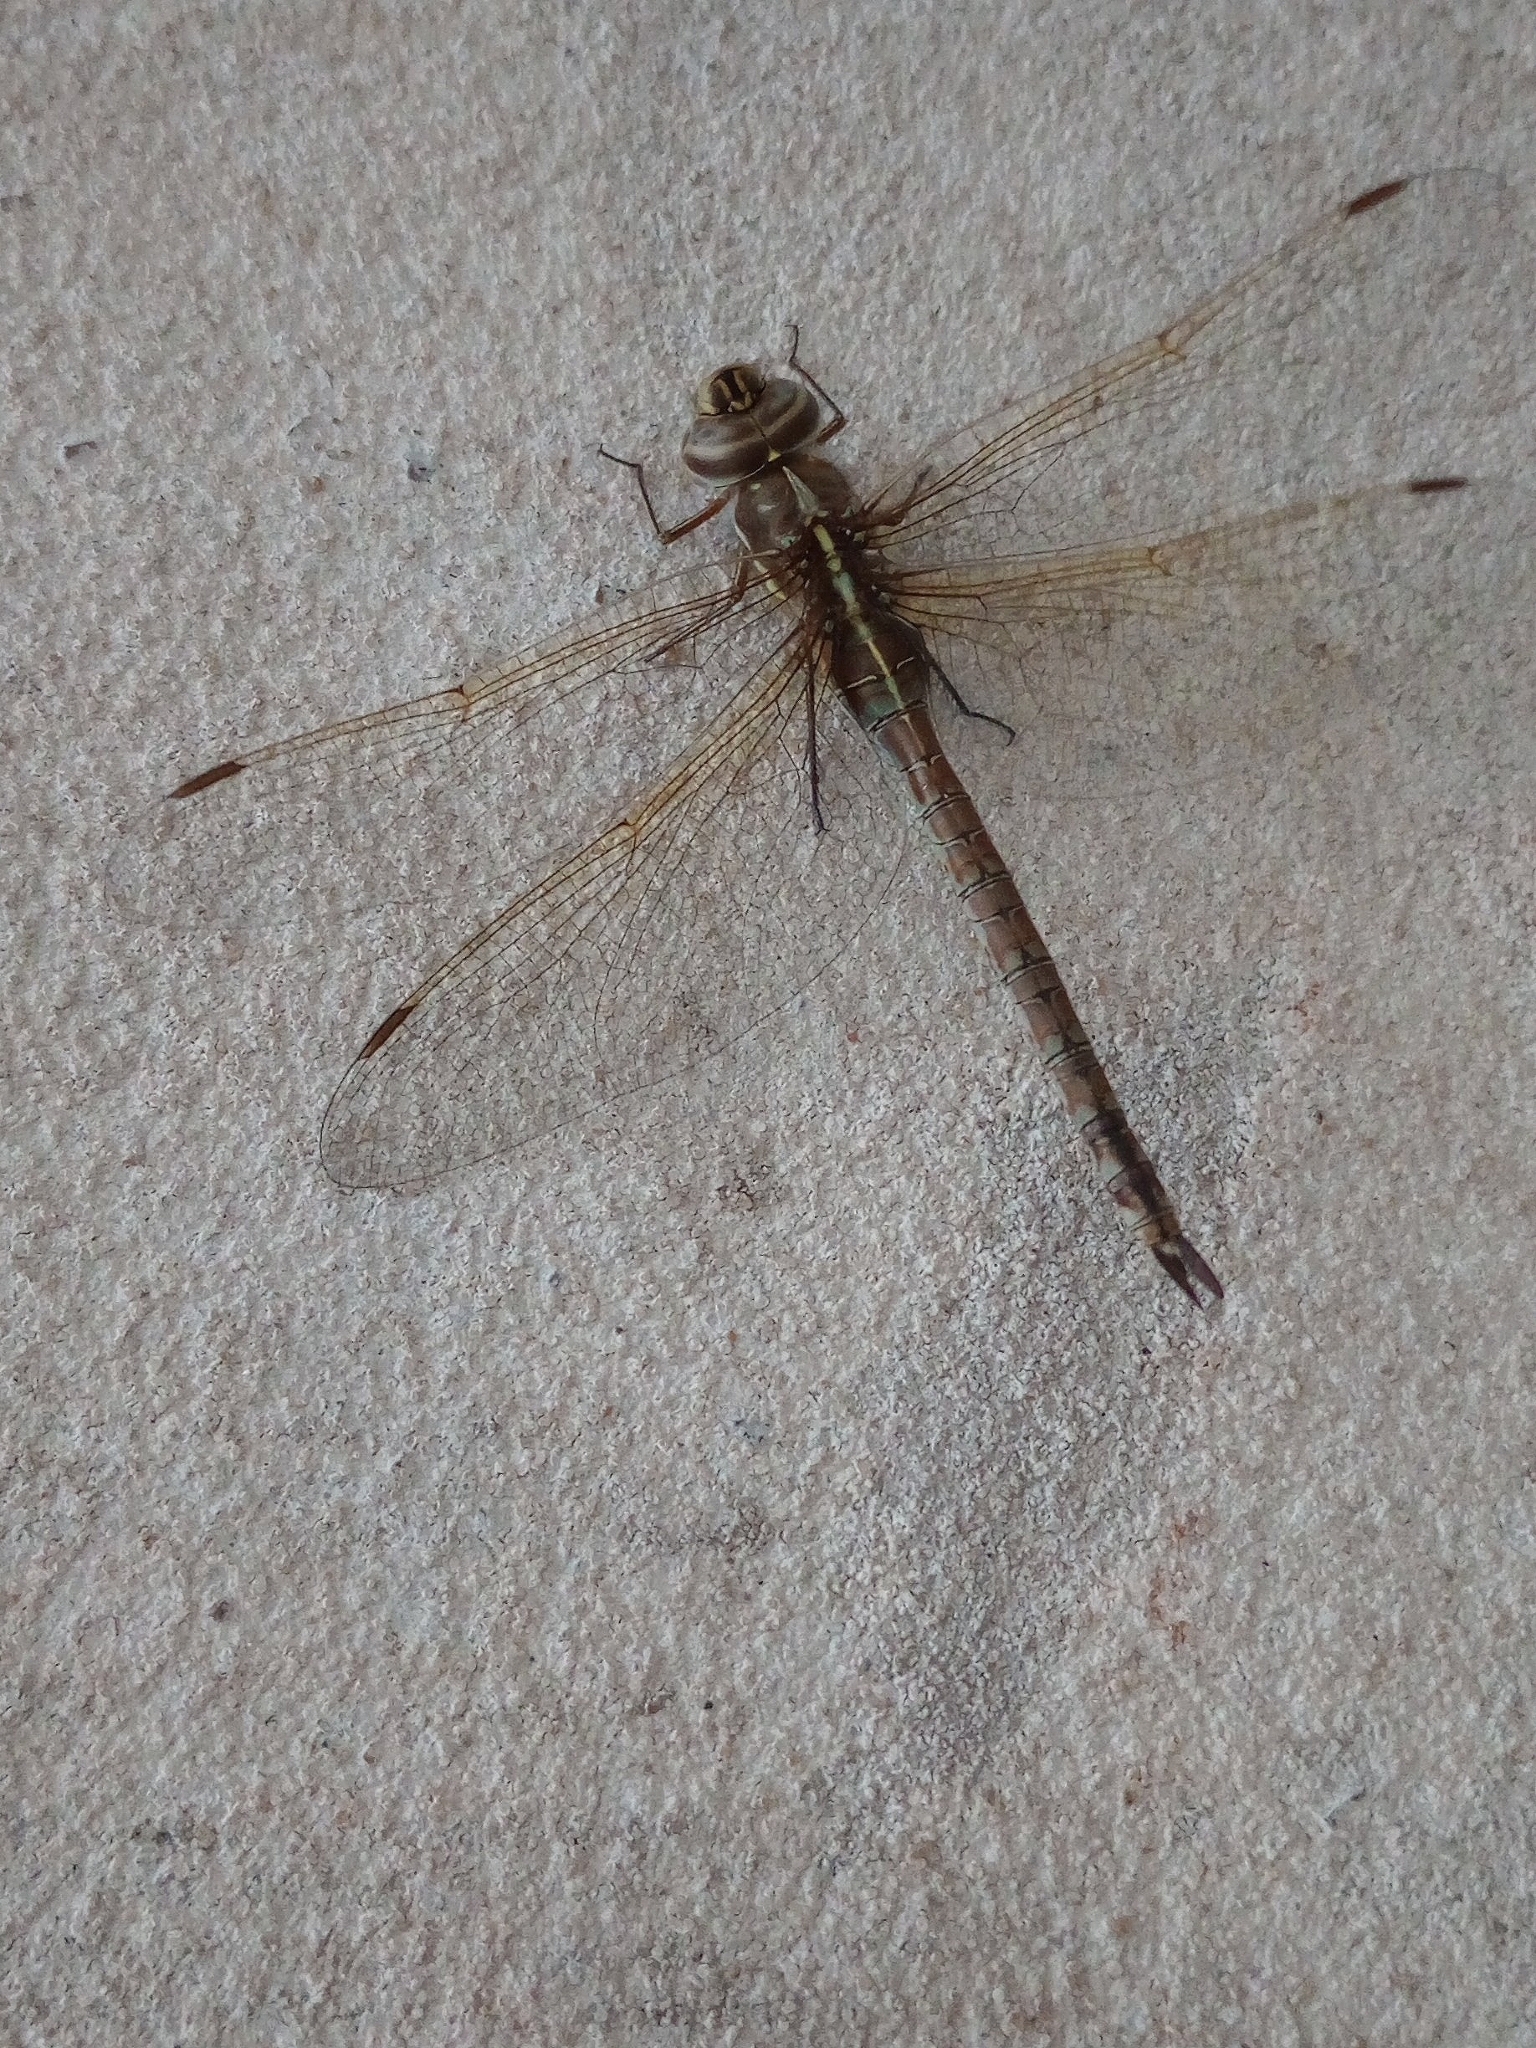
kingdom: Animalia
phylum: Arthropoda
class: Insecta
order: Odonata
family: Aeshnidae
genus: Rhionaeschna
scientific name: Rhionaeschna bonariensis
